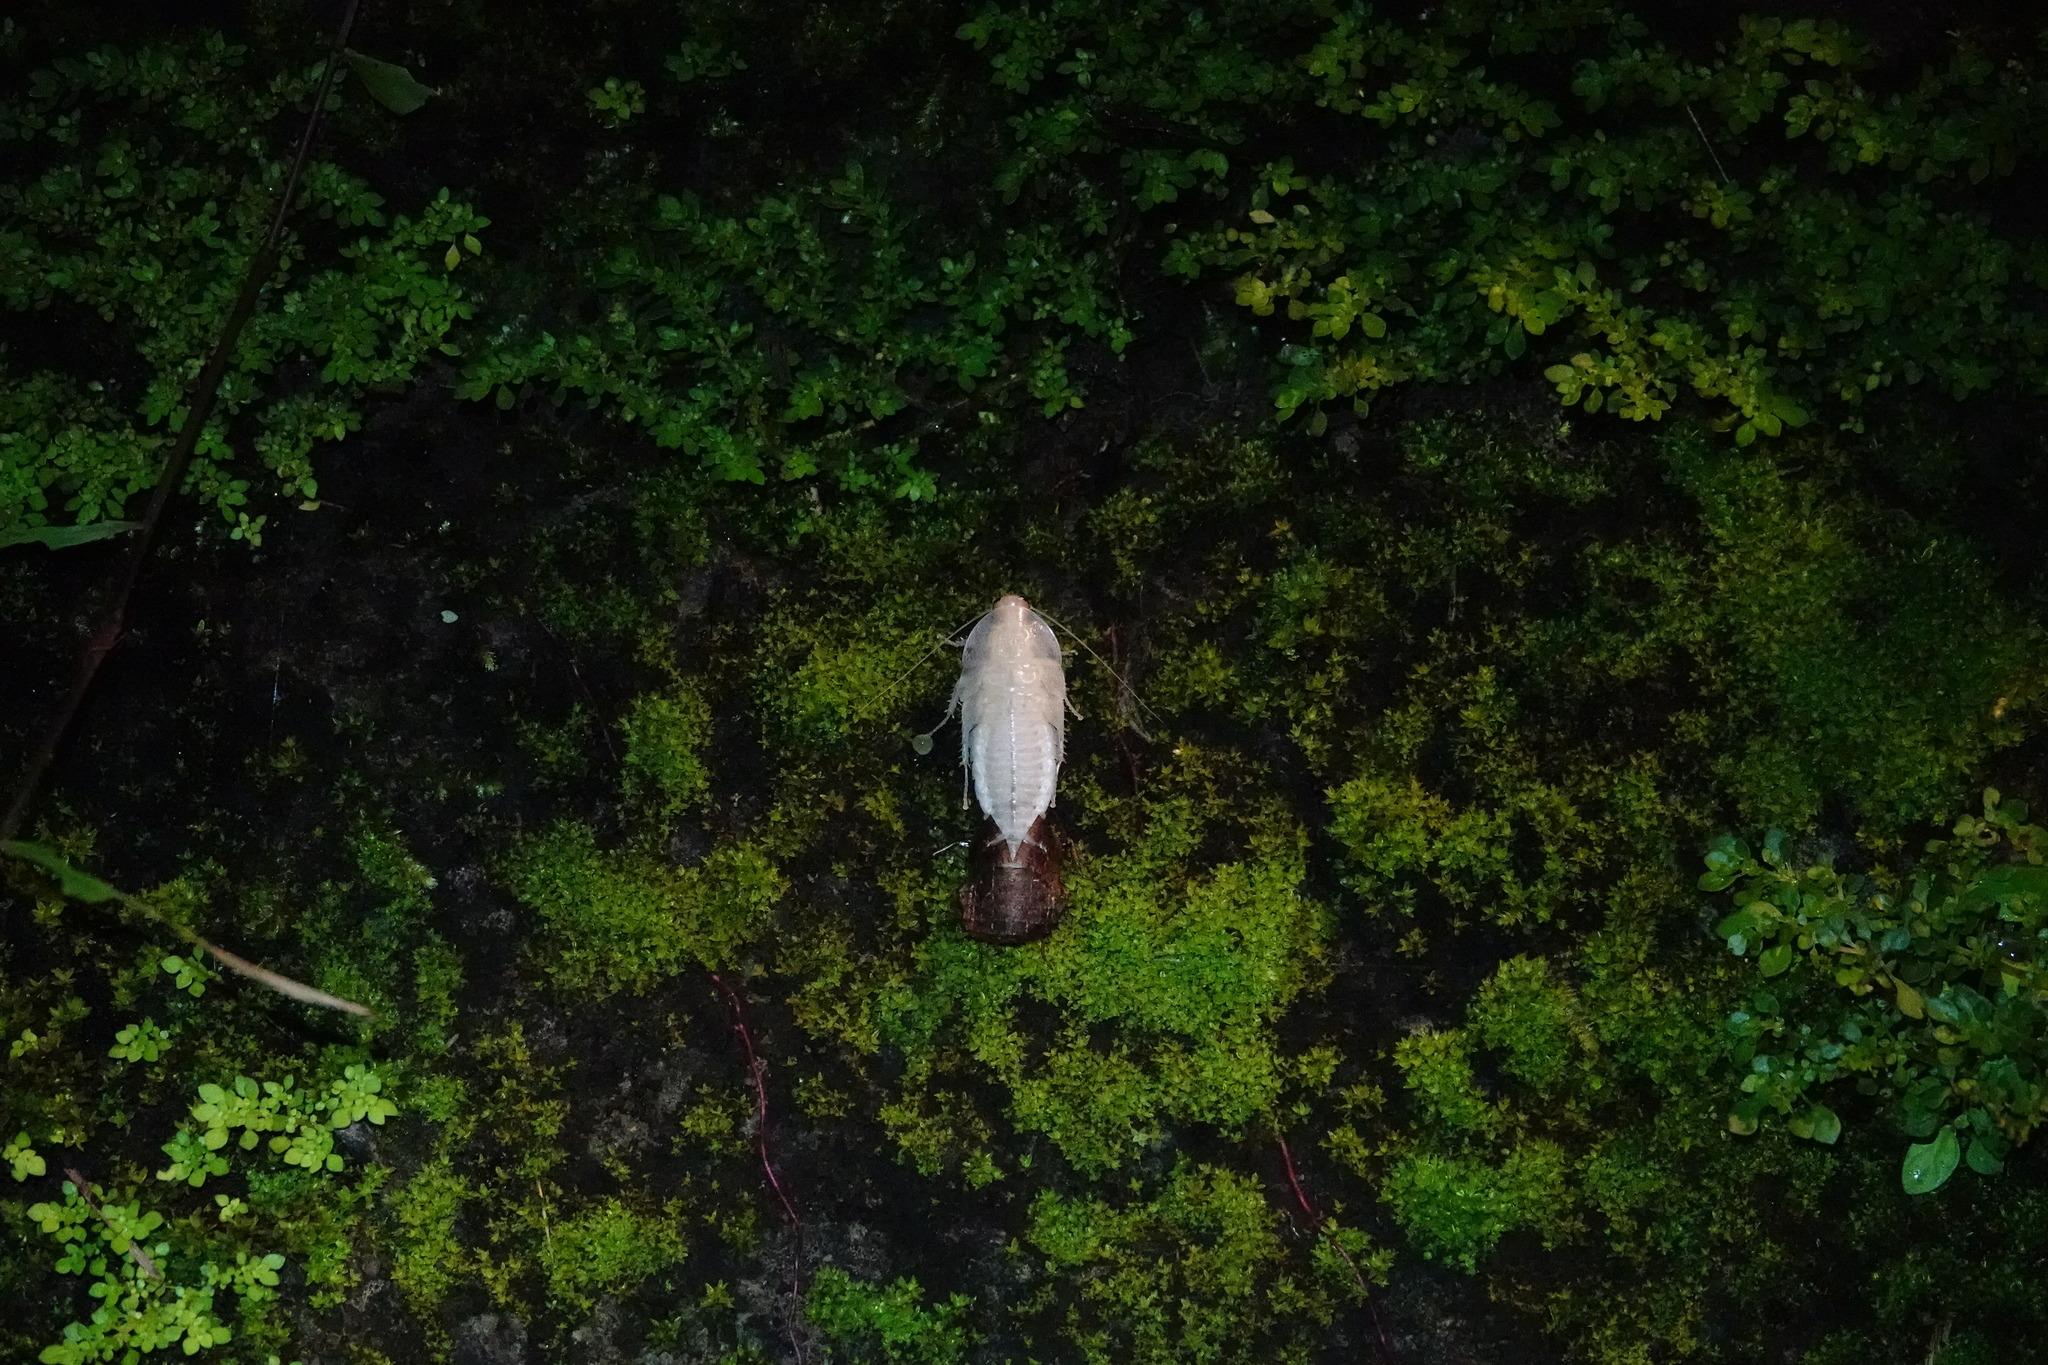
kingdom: Animalia
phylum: Arthropoda
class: Insecta
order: Blattodea
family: Blaberidae
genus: Opisthoplatia
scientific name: Opisthoplatia orientalis
